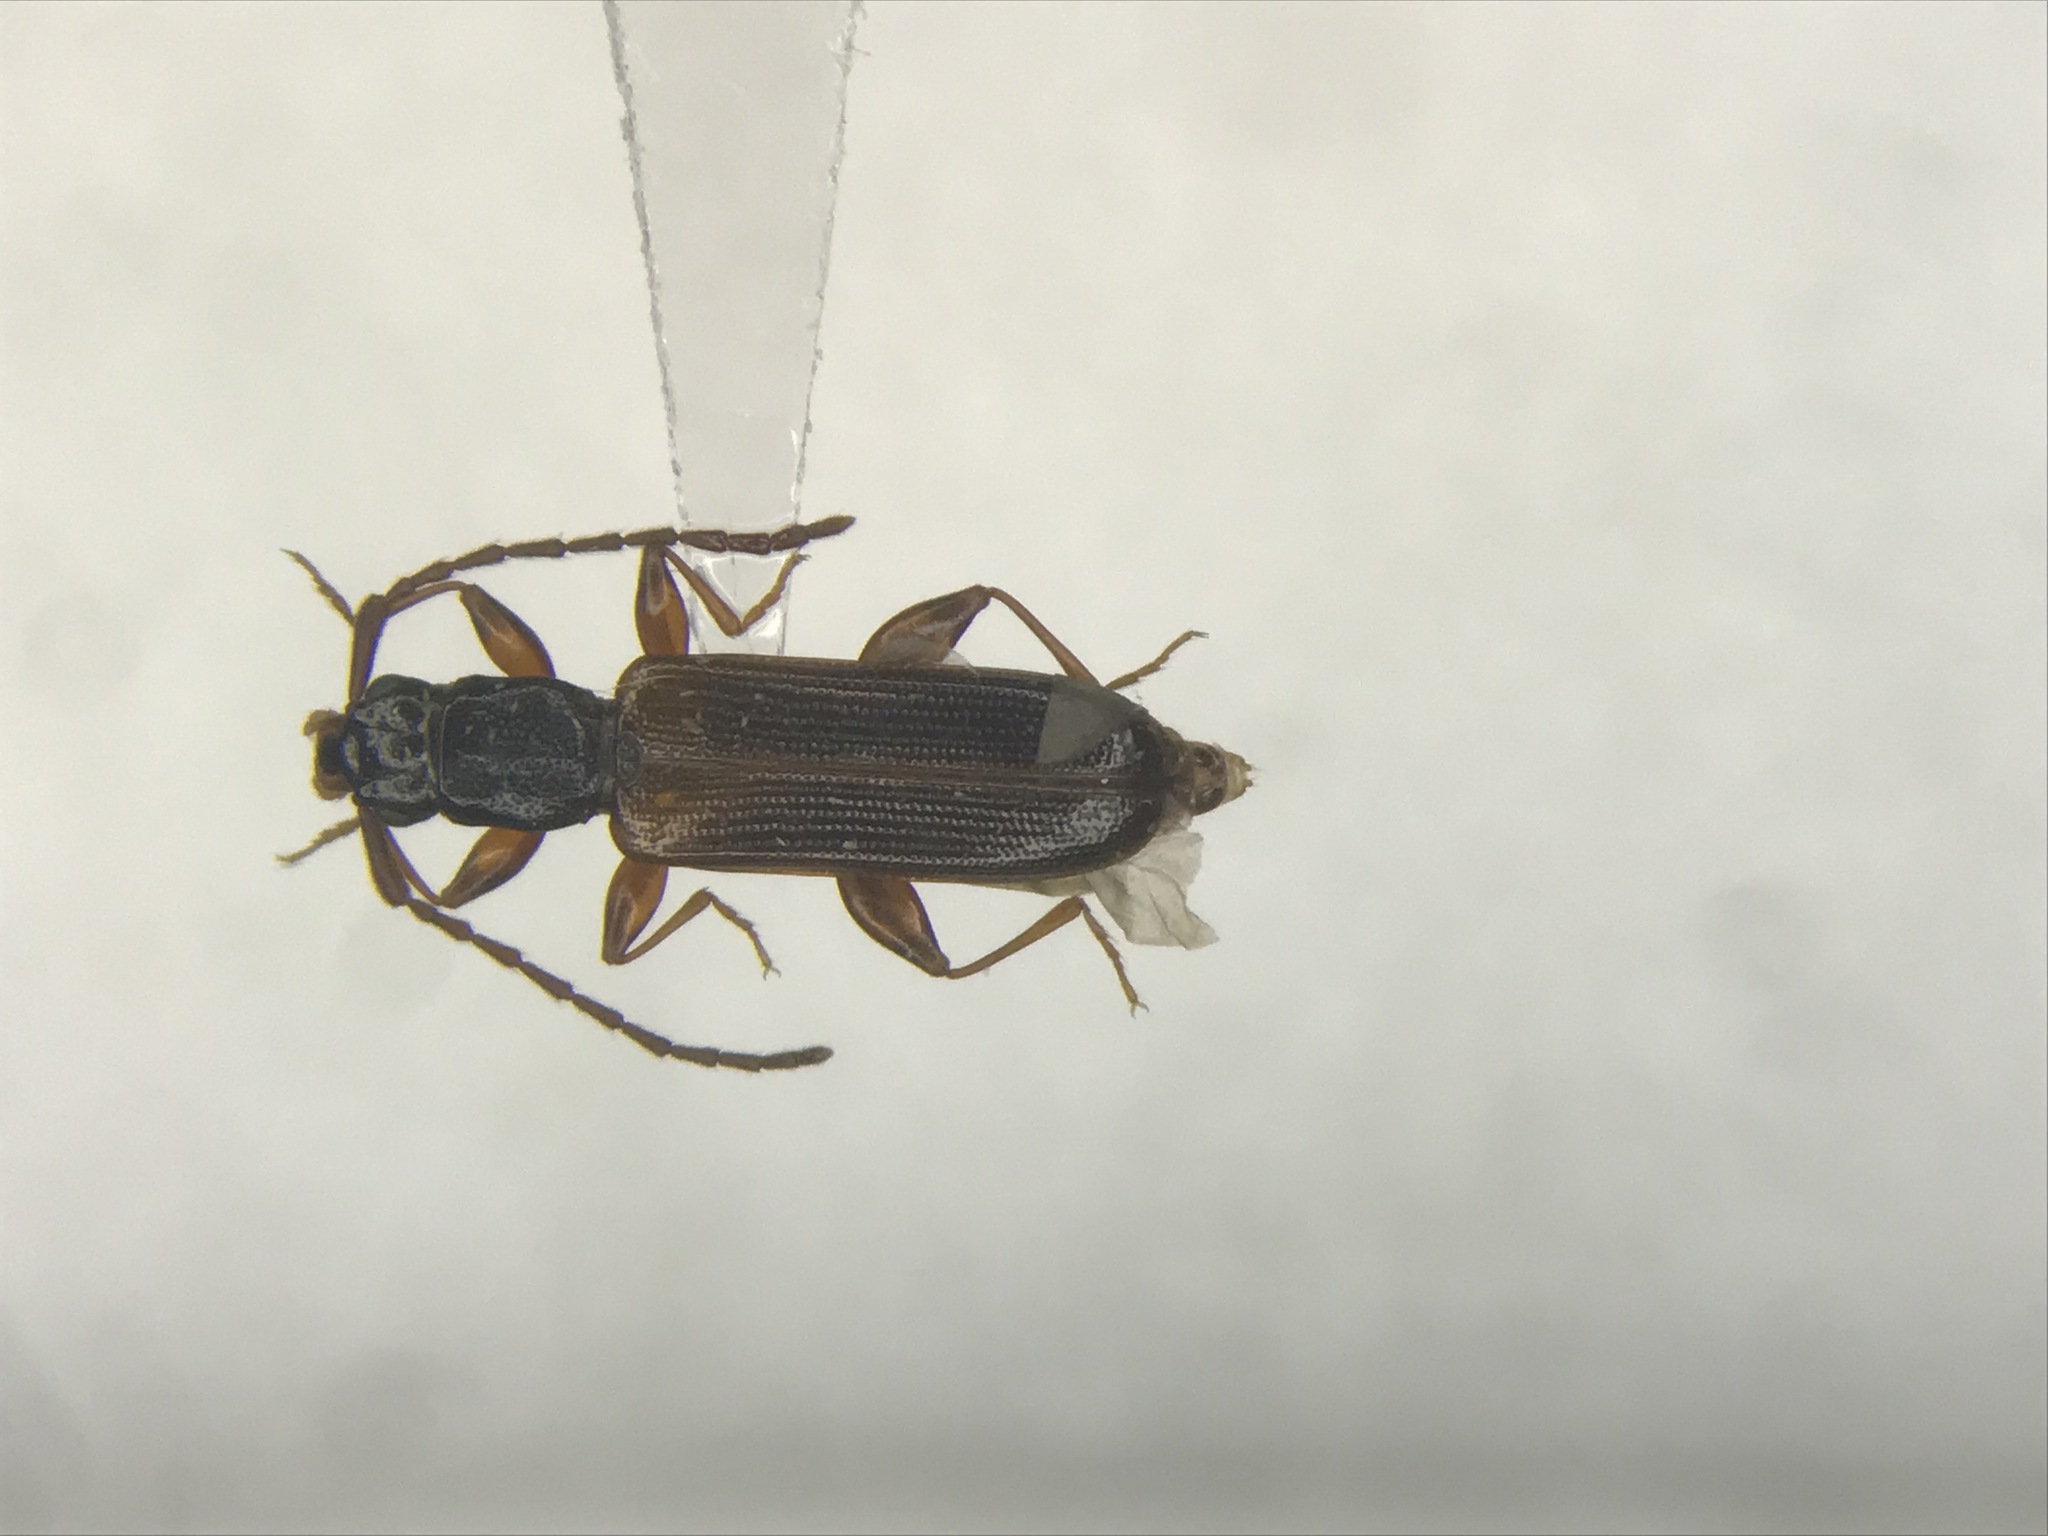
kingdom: Animalia
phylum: Arthropoda
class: Insecta
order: Coleoptera
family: Silvanidae
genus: Dendrophagus
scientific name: Dendrophagus cygnaei
